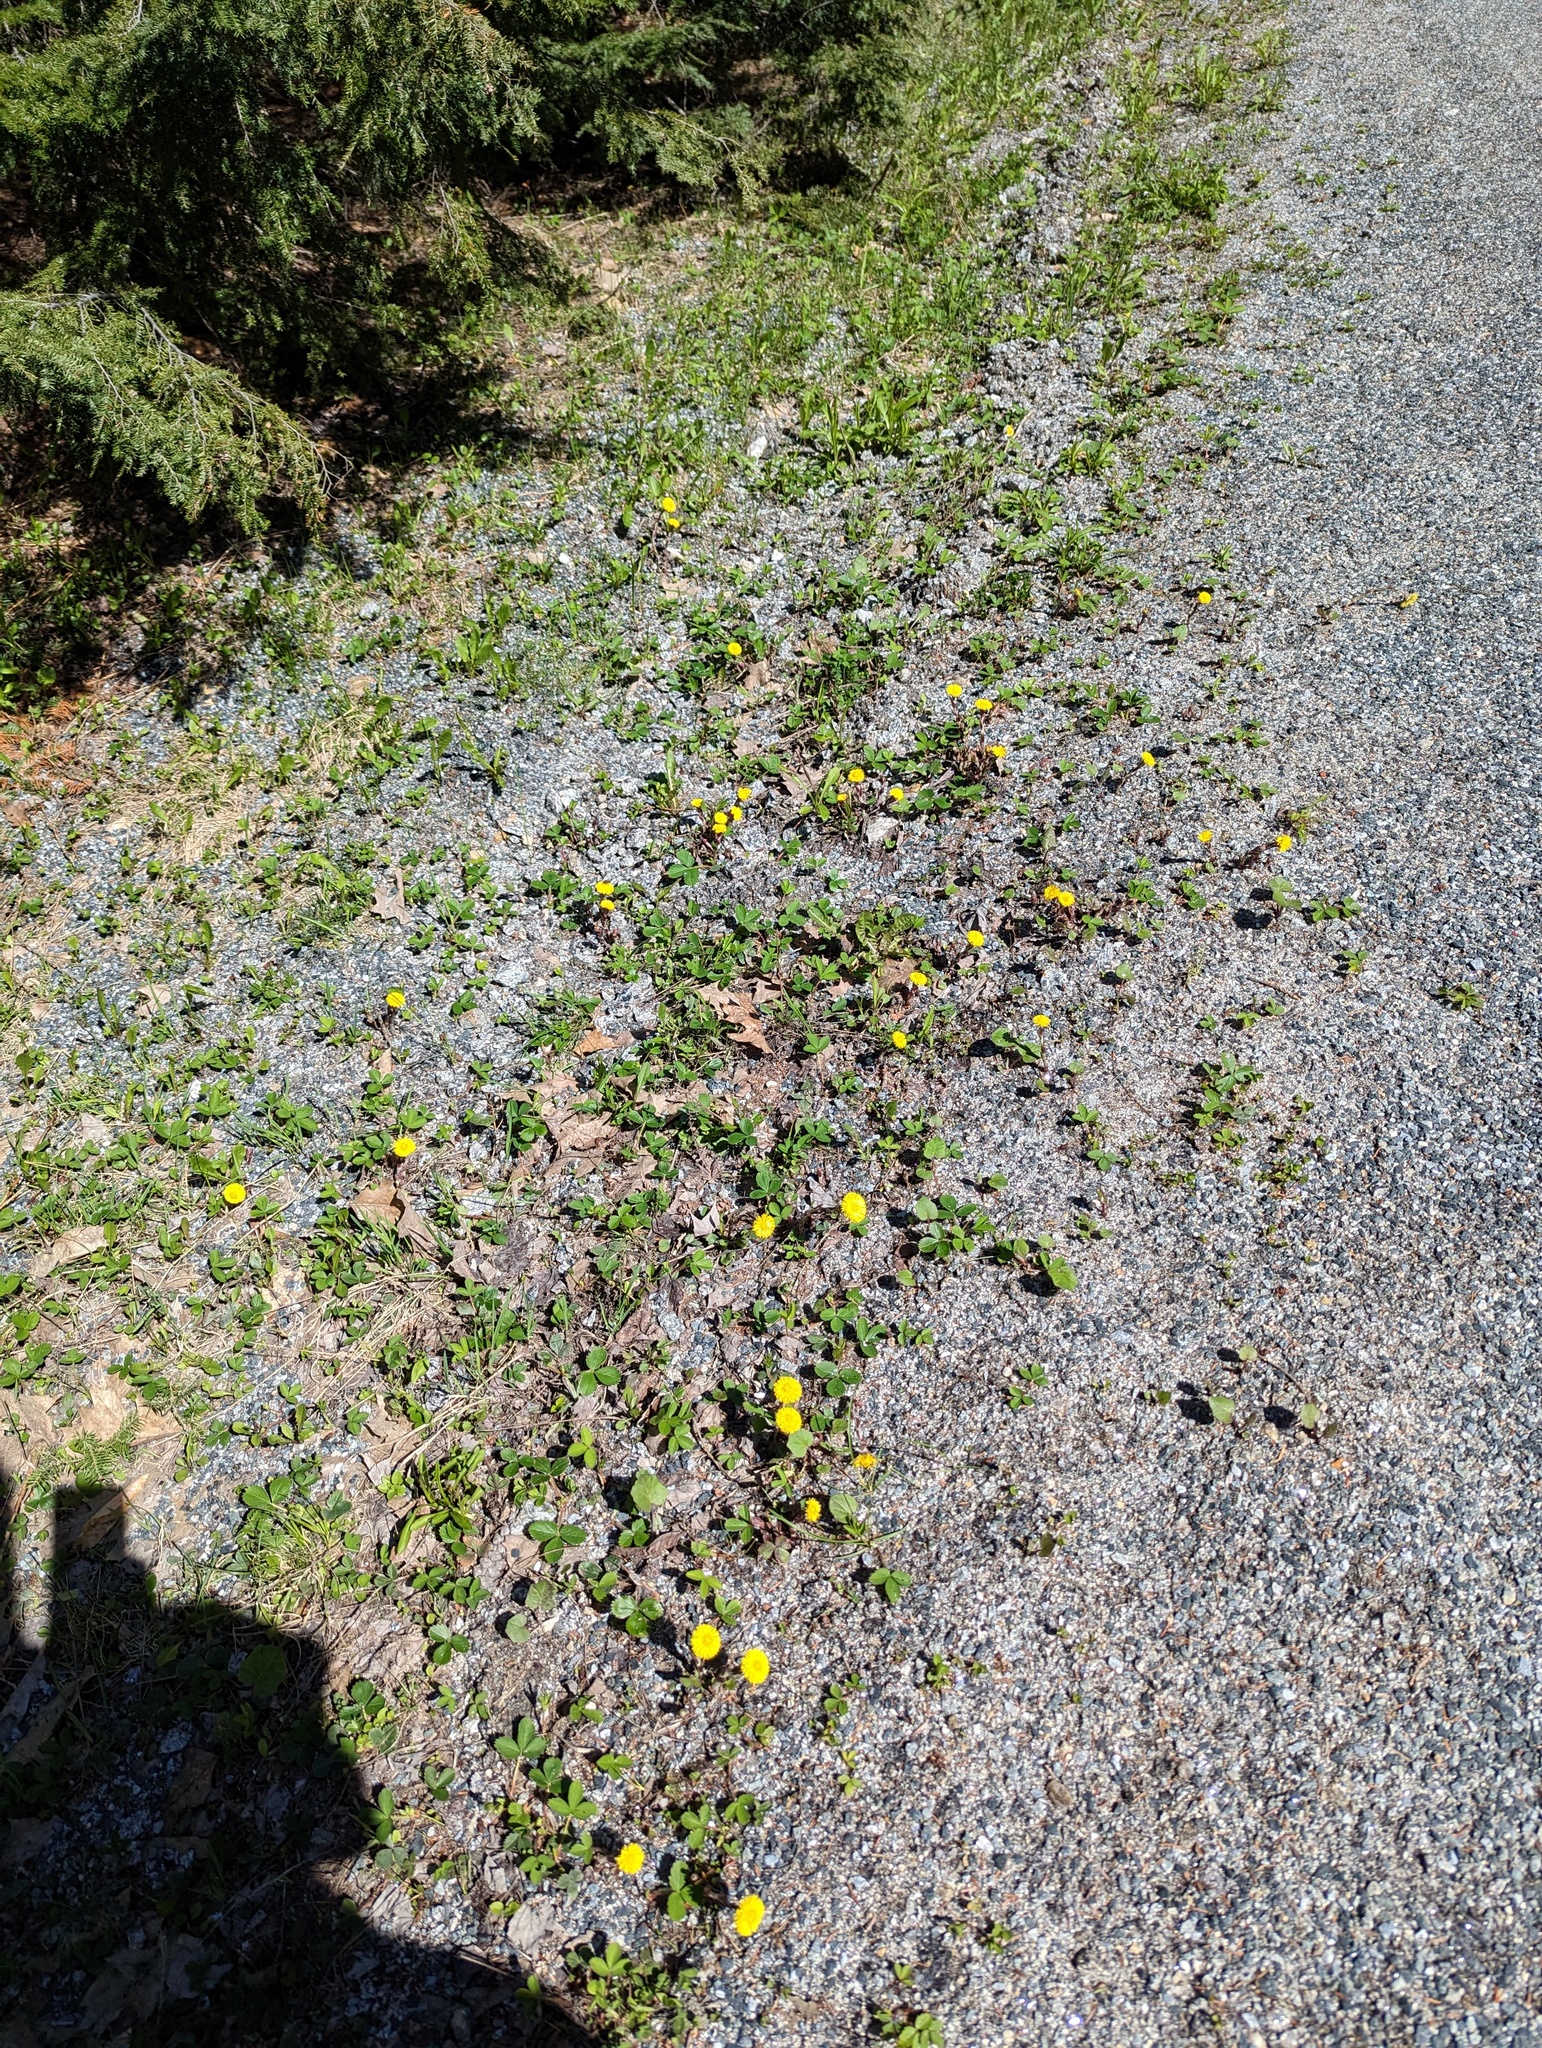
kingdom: Plantae
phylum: Tracheophyta
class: Magnoliopsida
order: Asterales
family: Asteraceae
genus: Tussilago
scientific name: Tussilago farfara
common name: Coltsfoot
